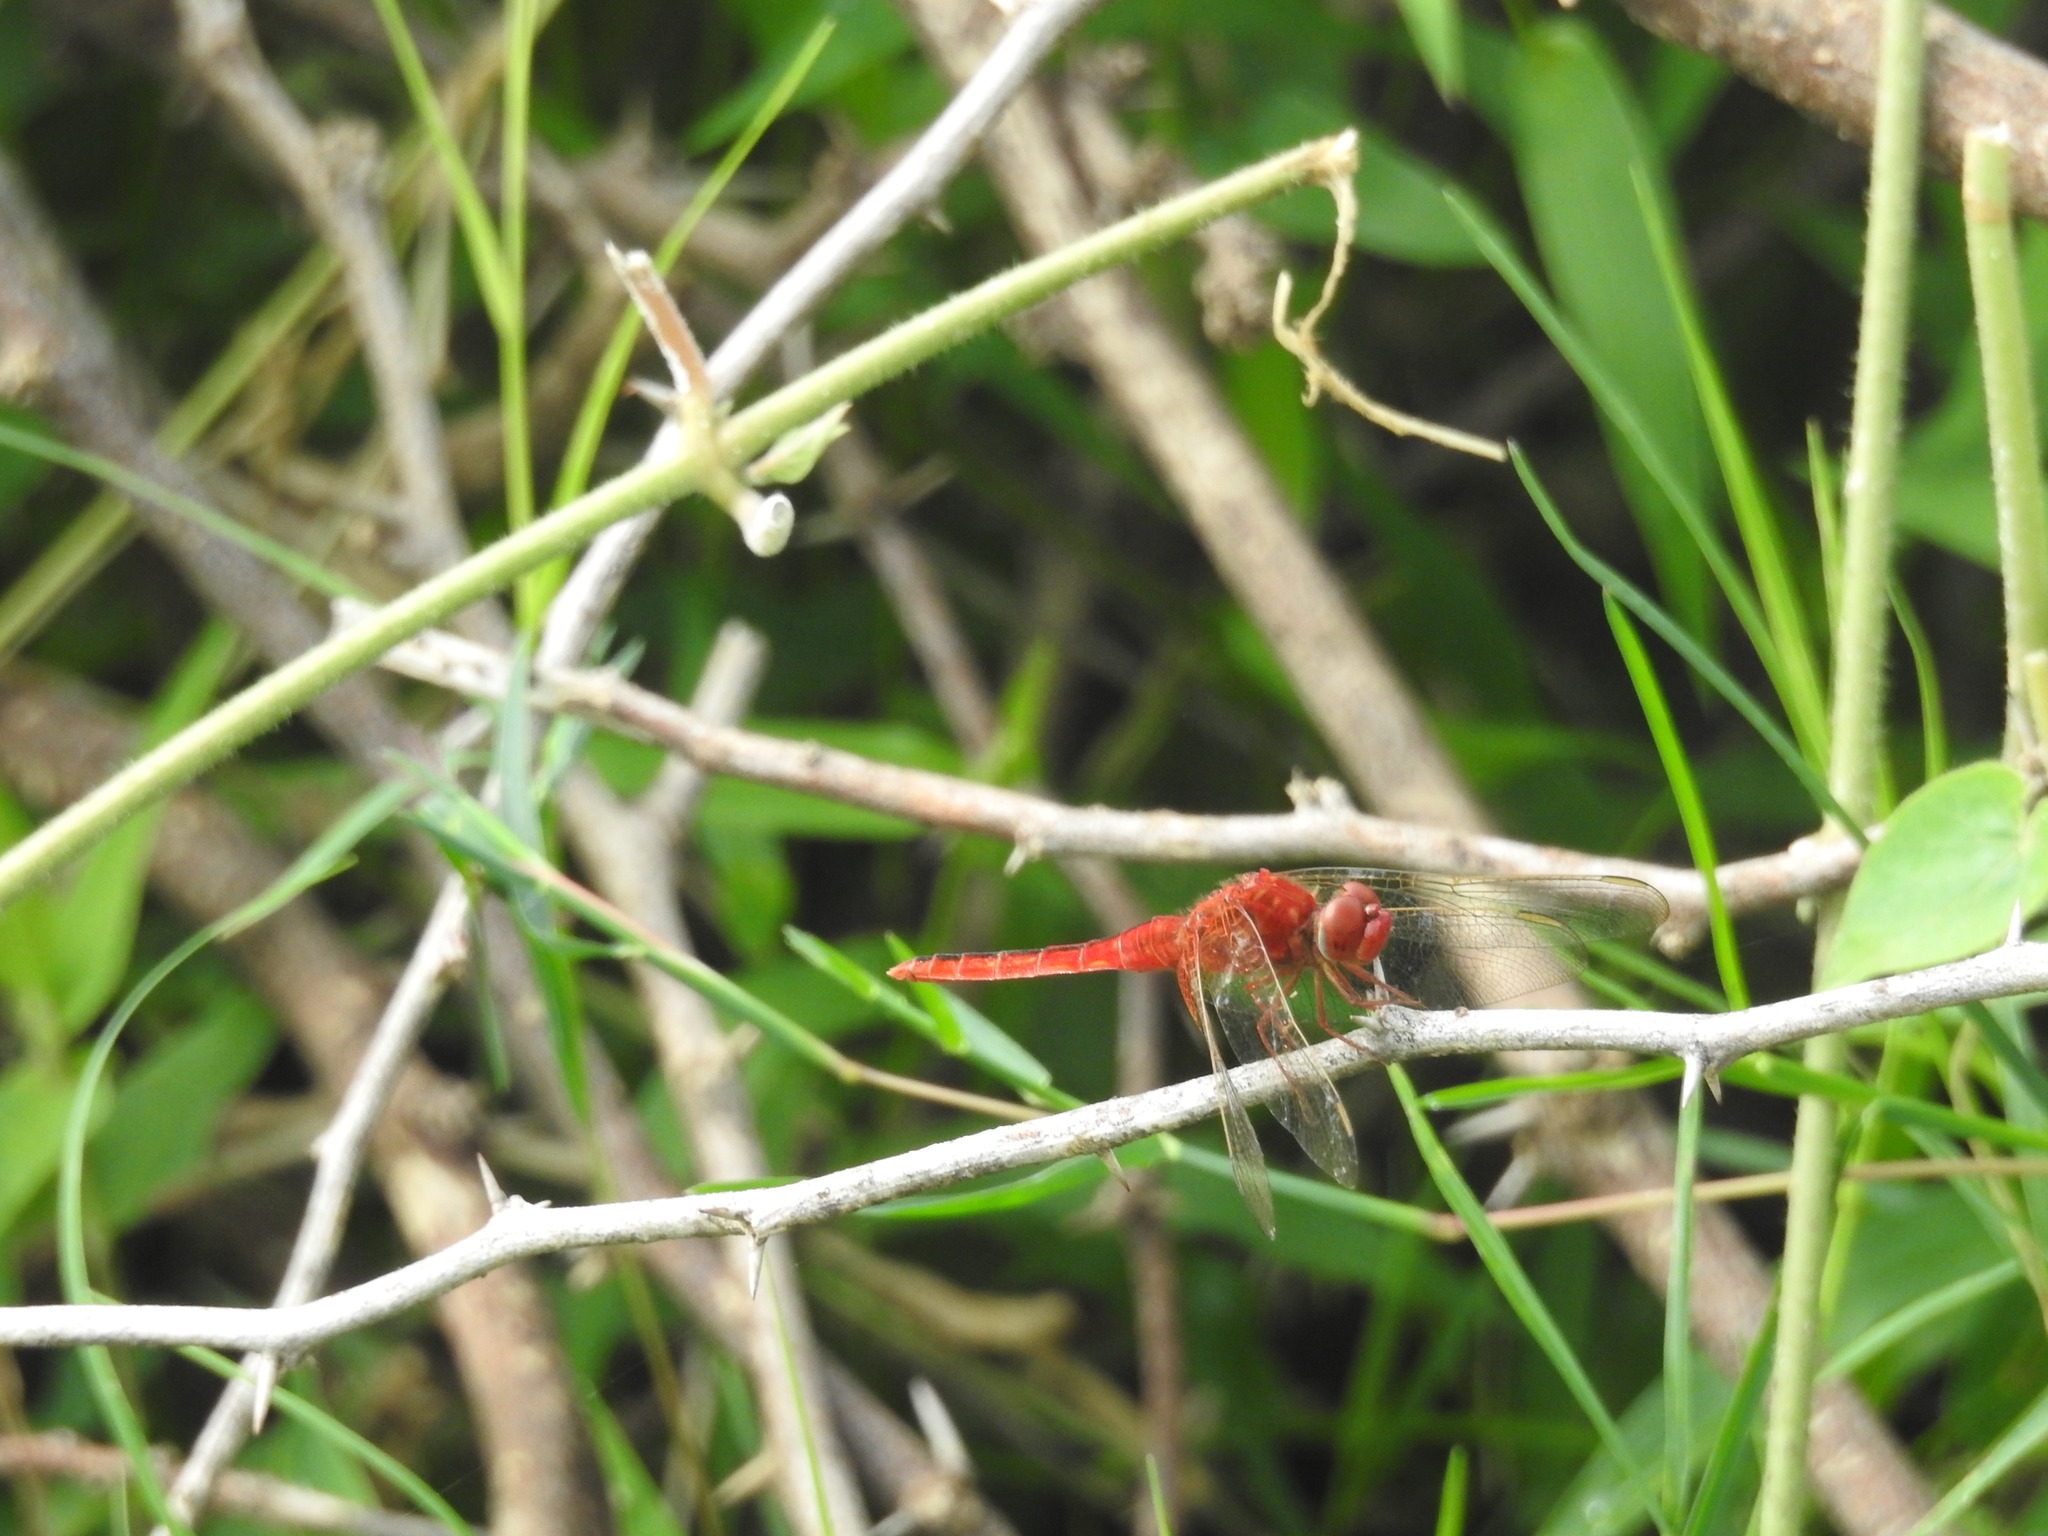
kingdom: Animalia
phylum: Arthropoda
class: Insecta
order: Odonata
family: Libellulidae
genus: Crocothemis
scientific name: Crocothemis servilia
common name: Scarlet skimmer
